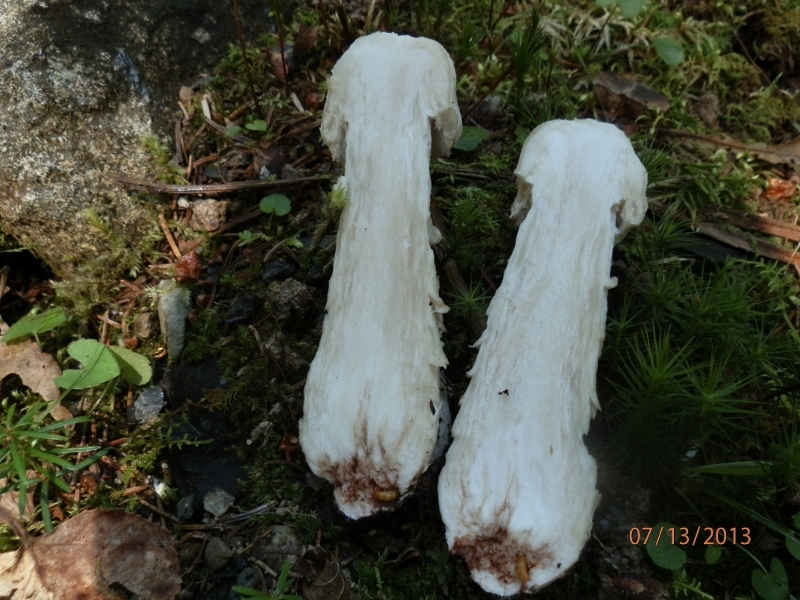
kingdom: Fungi
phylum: Ascomycota
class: Sordariomycetes
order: Hypocreales
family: Hypocreaceae
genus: Hypomyces
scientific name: Hypomyces hyalinus
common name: Amanita mold
